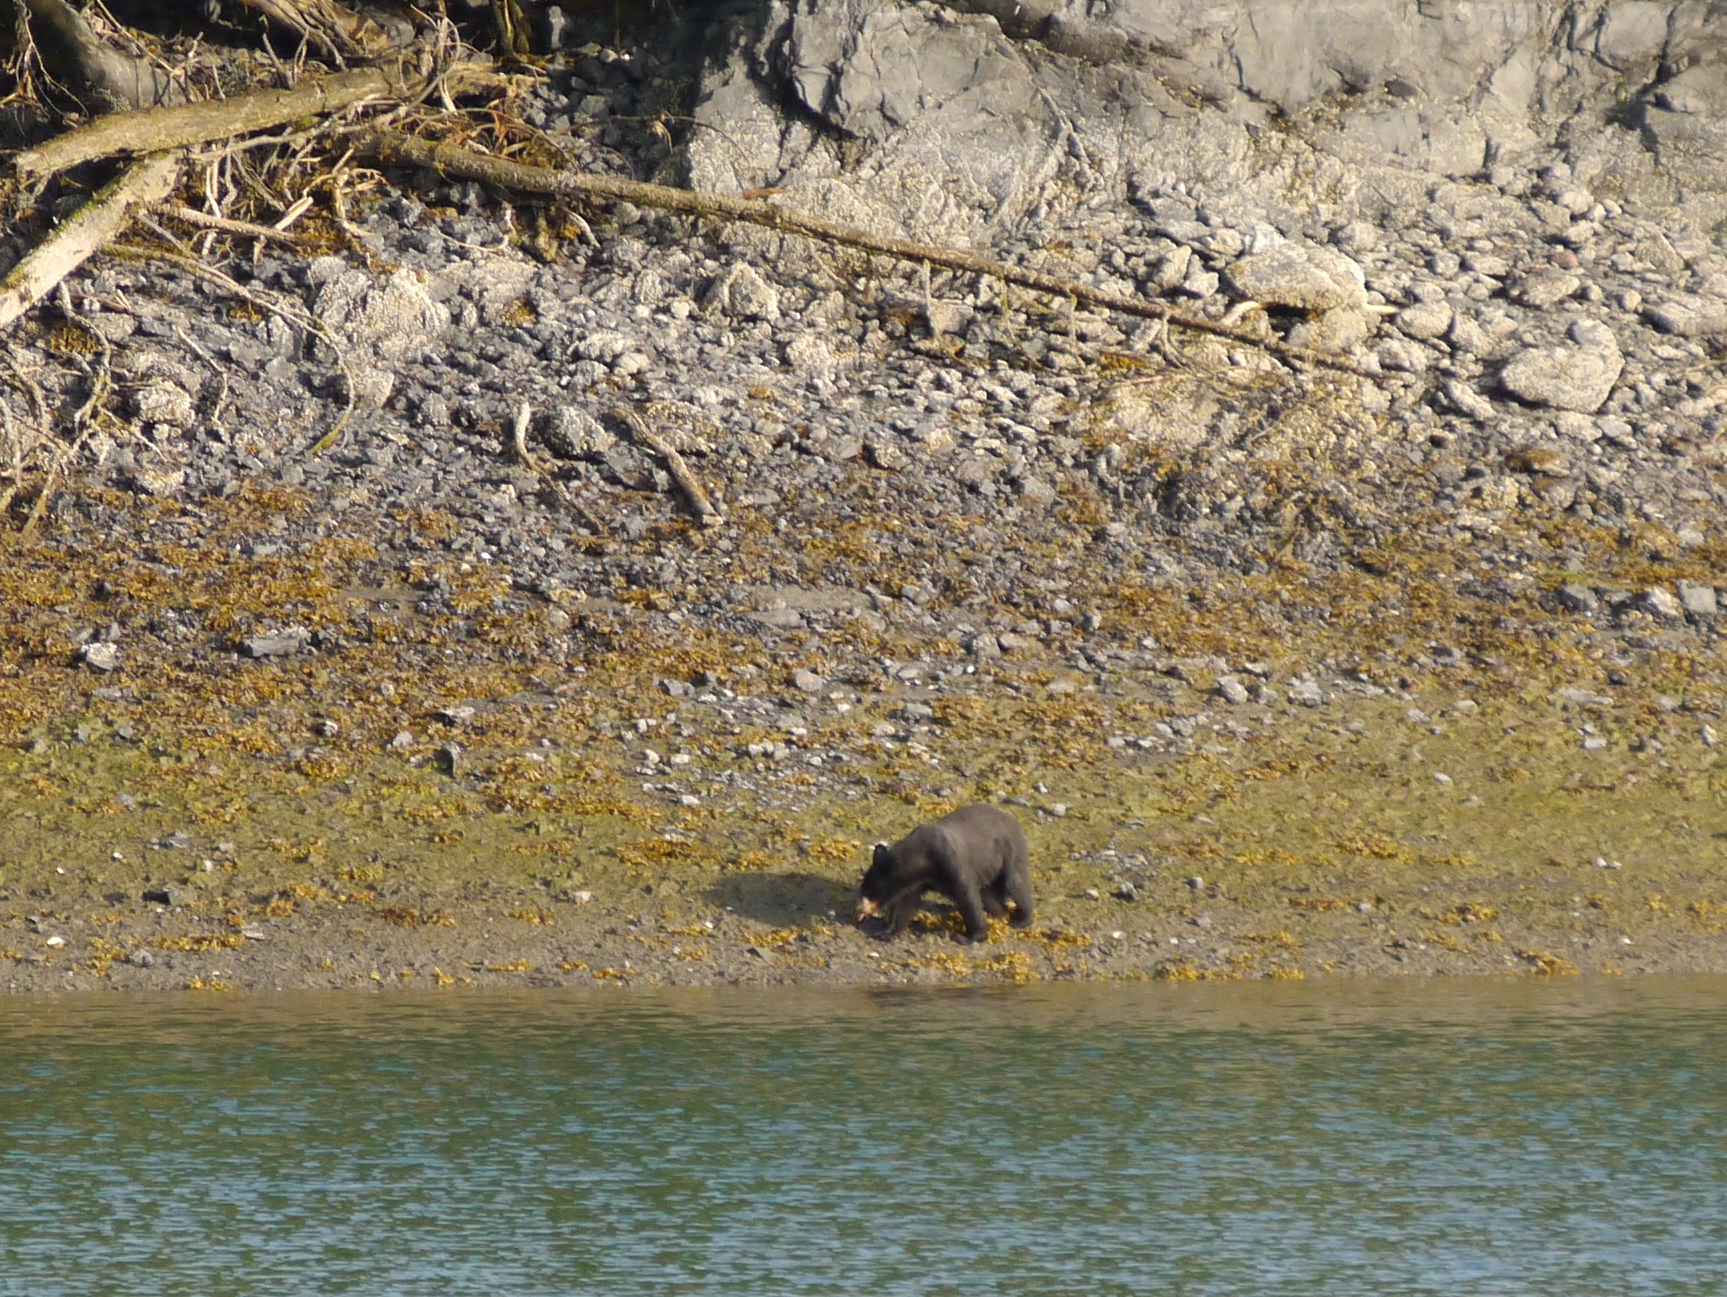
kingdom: Animalia
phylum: Chordata
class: Mammalia
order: Carnivora
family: Ursidae
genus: Ursus
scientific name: Ursus americanus
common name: American black bear
